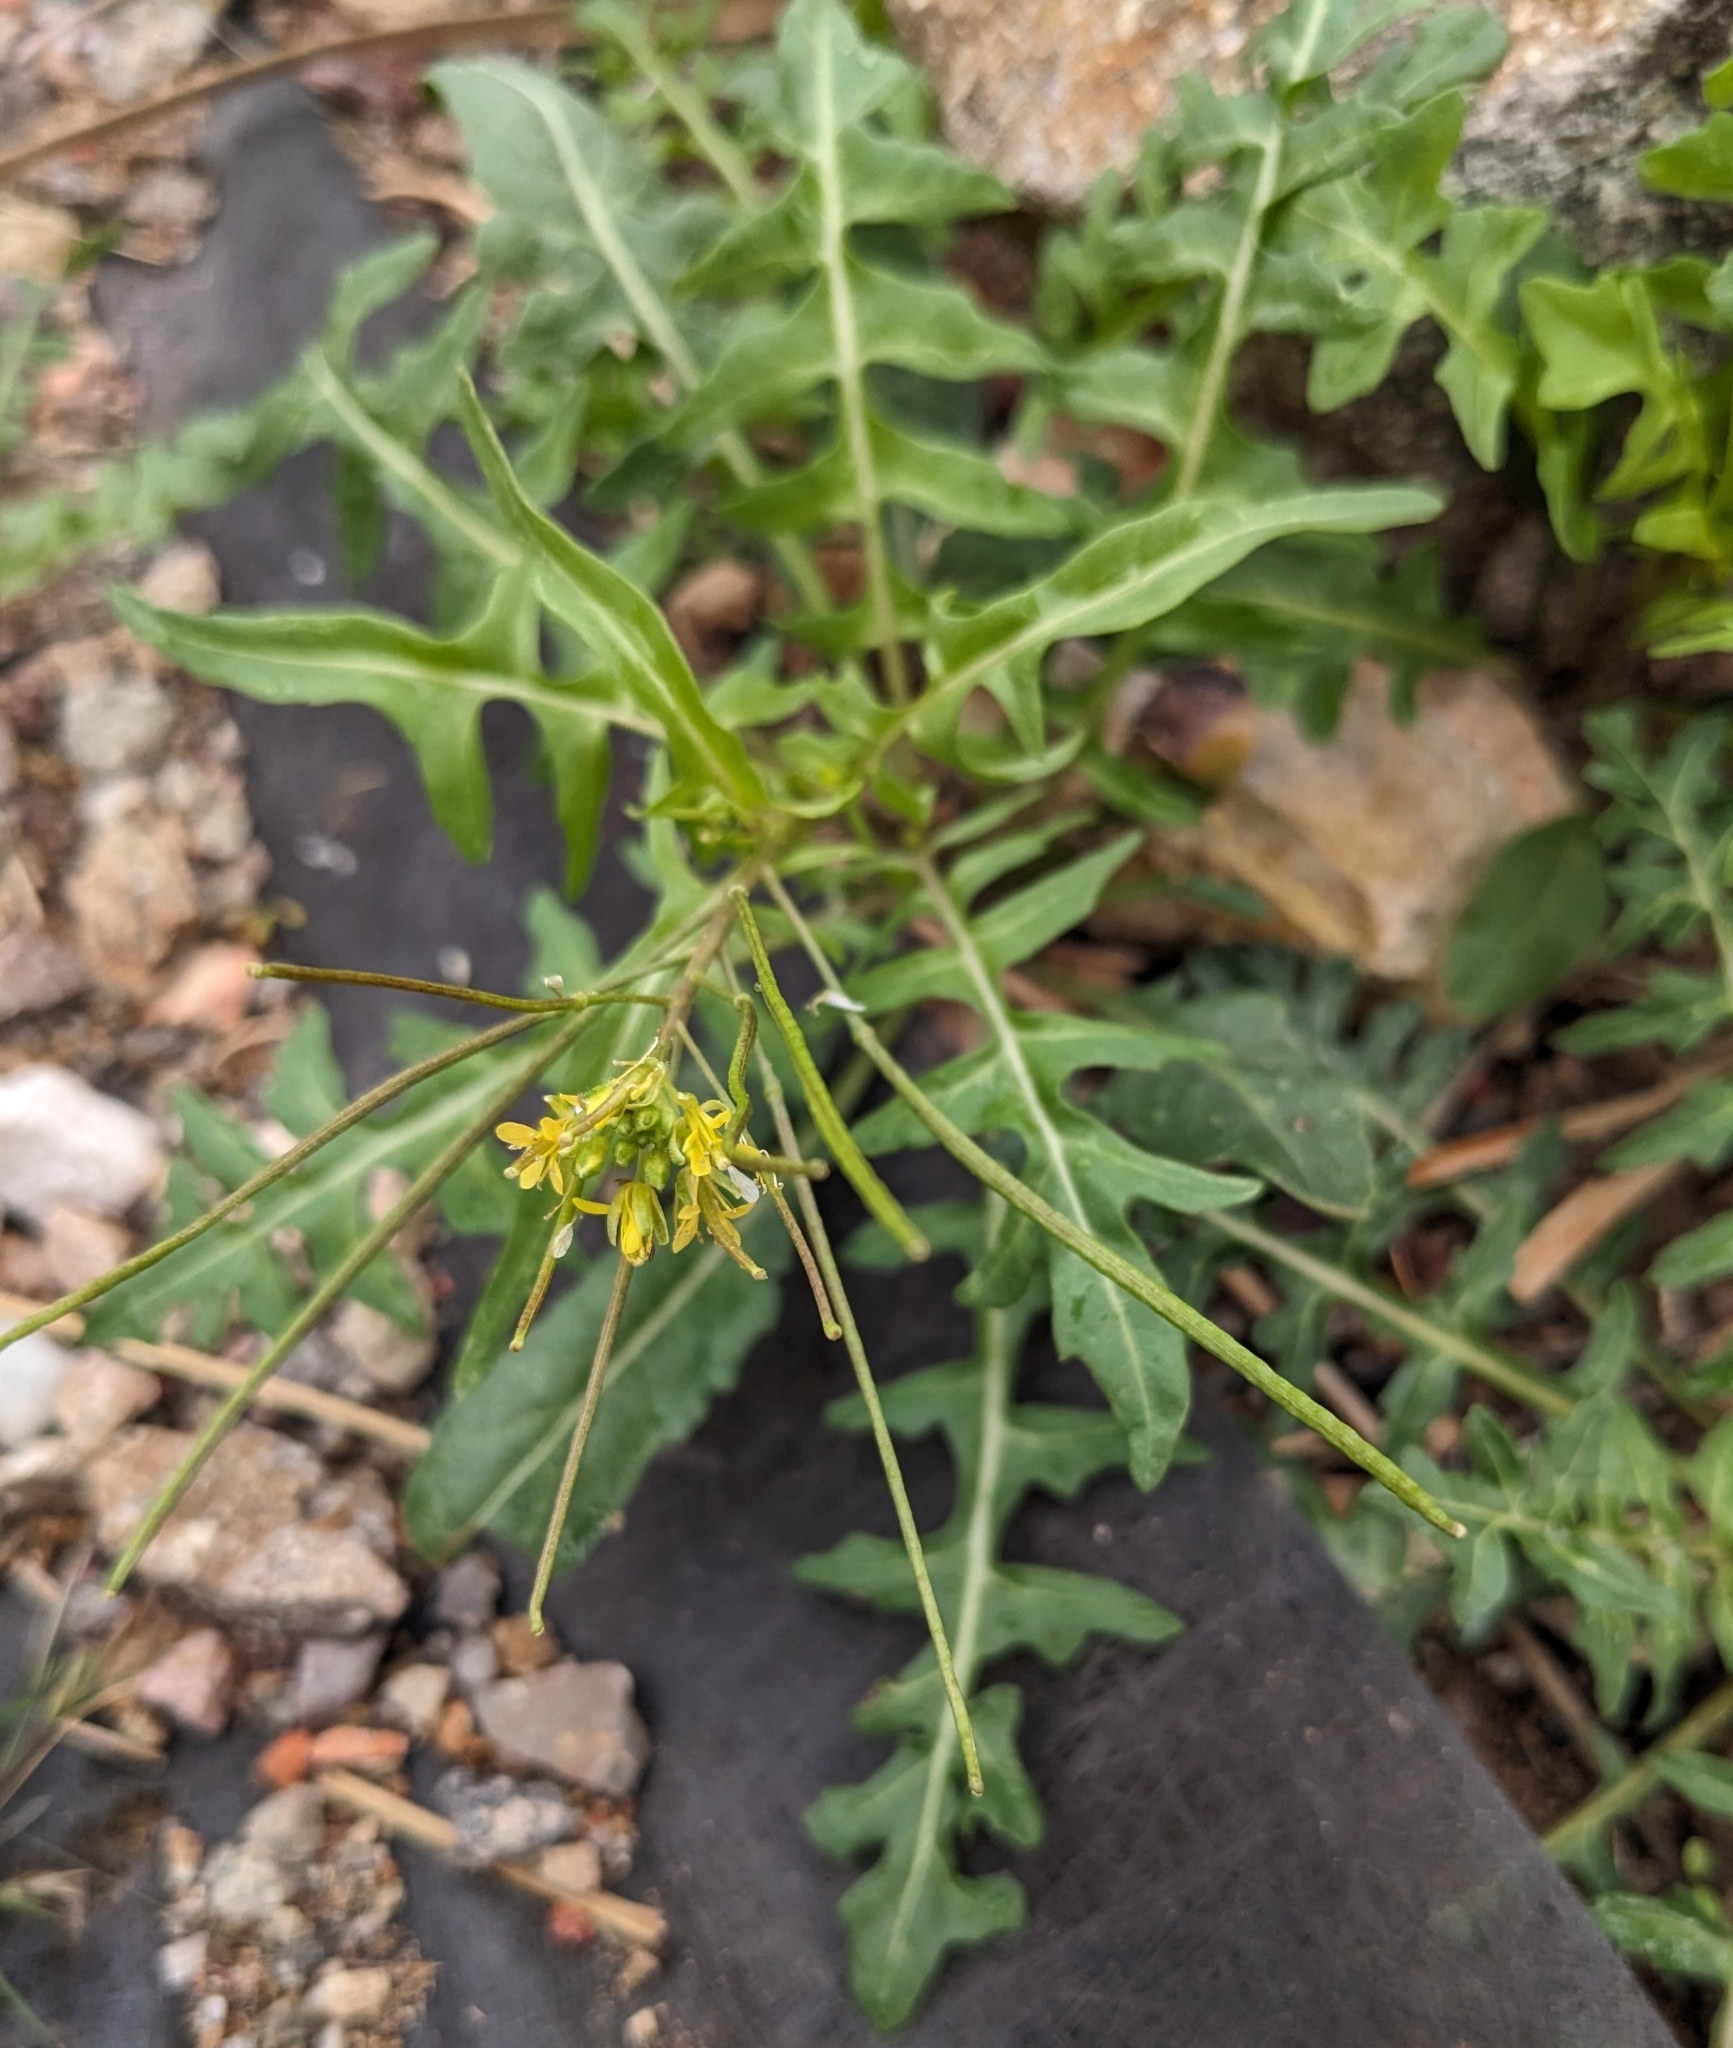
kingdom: Plantae
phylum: Tracheophyta
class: Magnoliopsida
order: Brassicales
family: Brassicaceae
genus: Sisymbrium
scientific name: Sisymbrium irio
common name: London rocket
